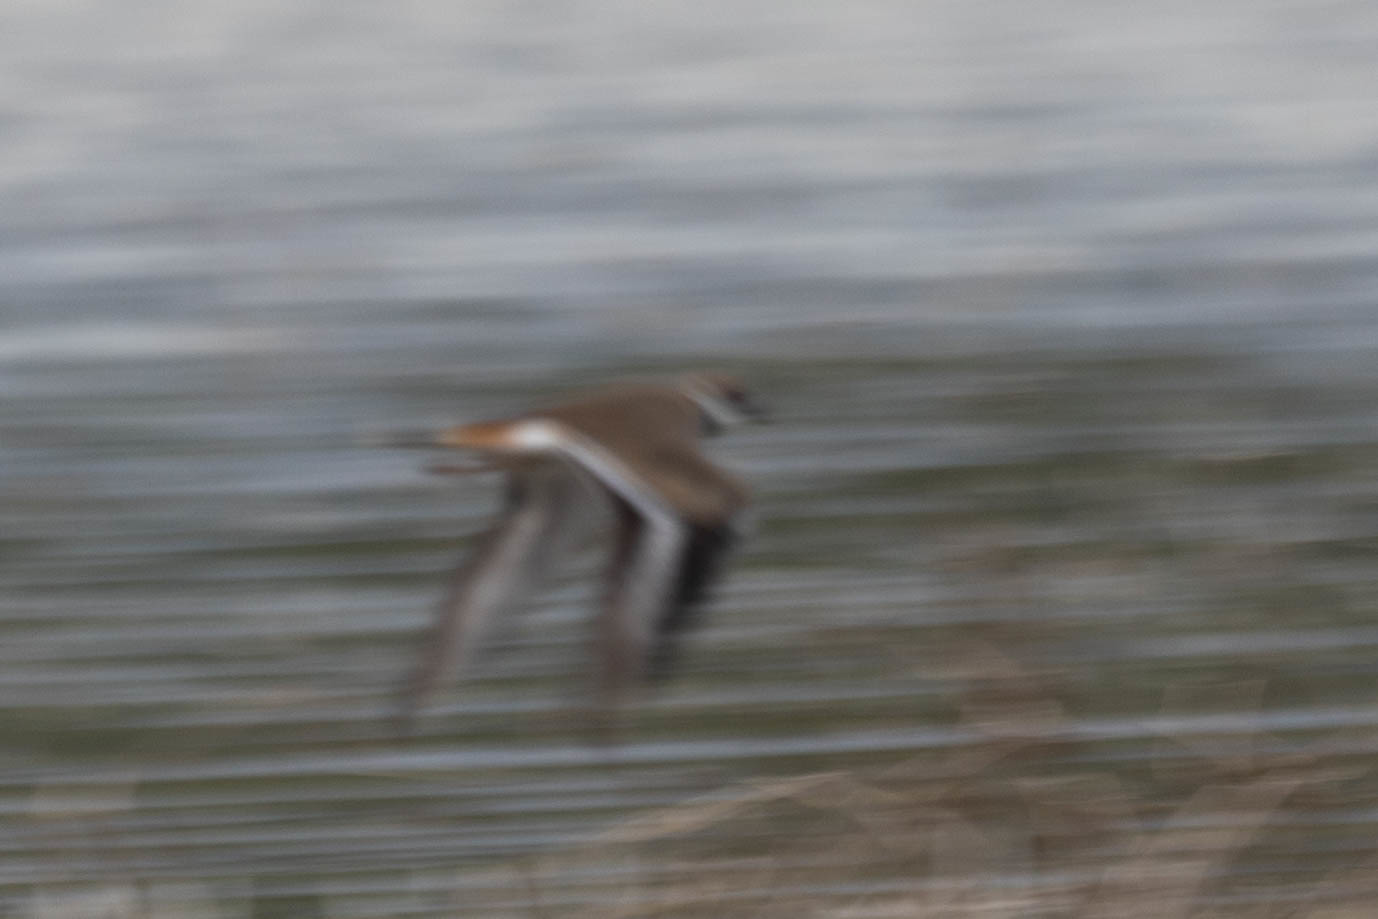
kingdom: Animalia
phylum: Chordata
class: Aves
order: Charadriiformes
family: Charadriidae
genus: Charadrius
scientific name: Charadrius vociferus
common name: Killdeer
